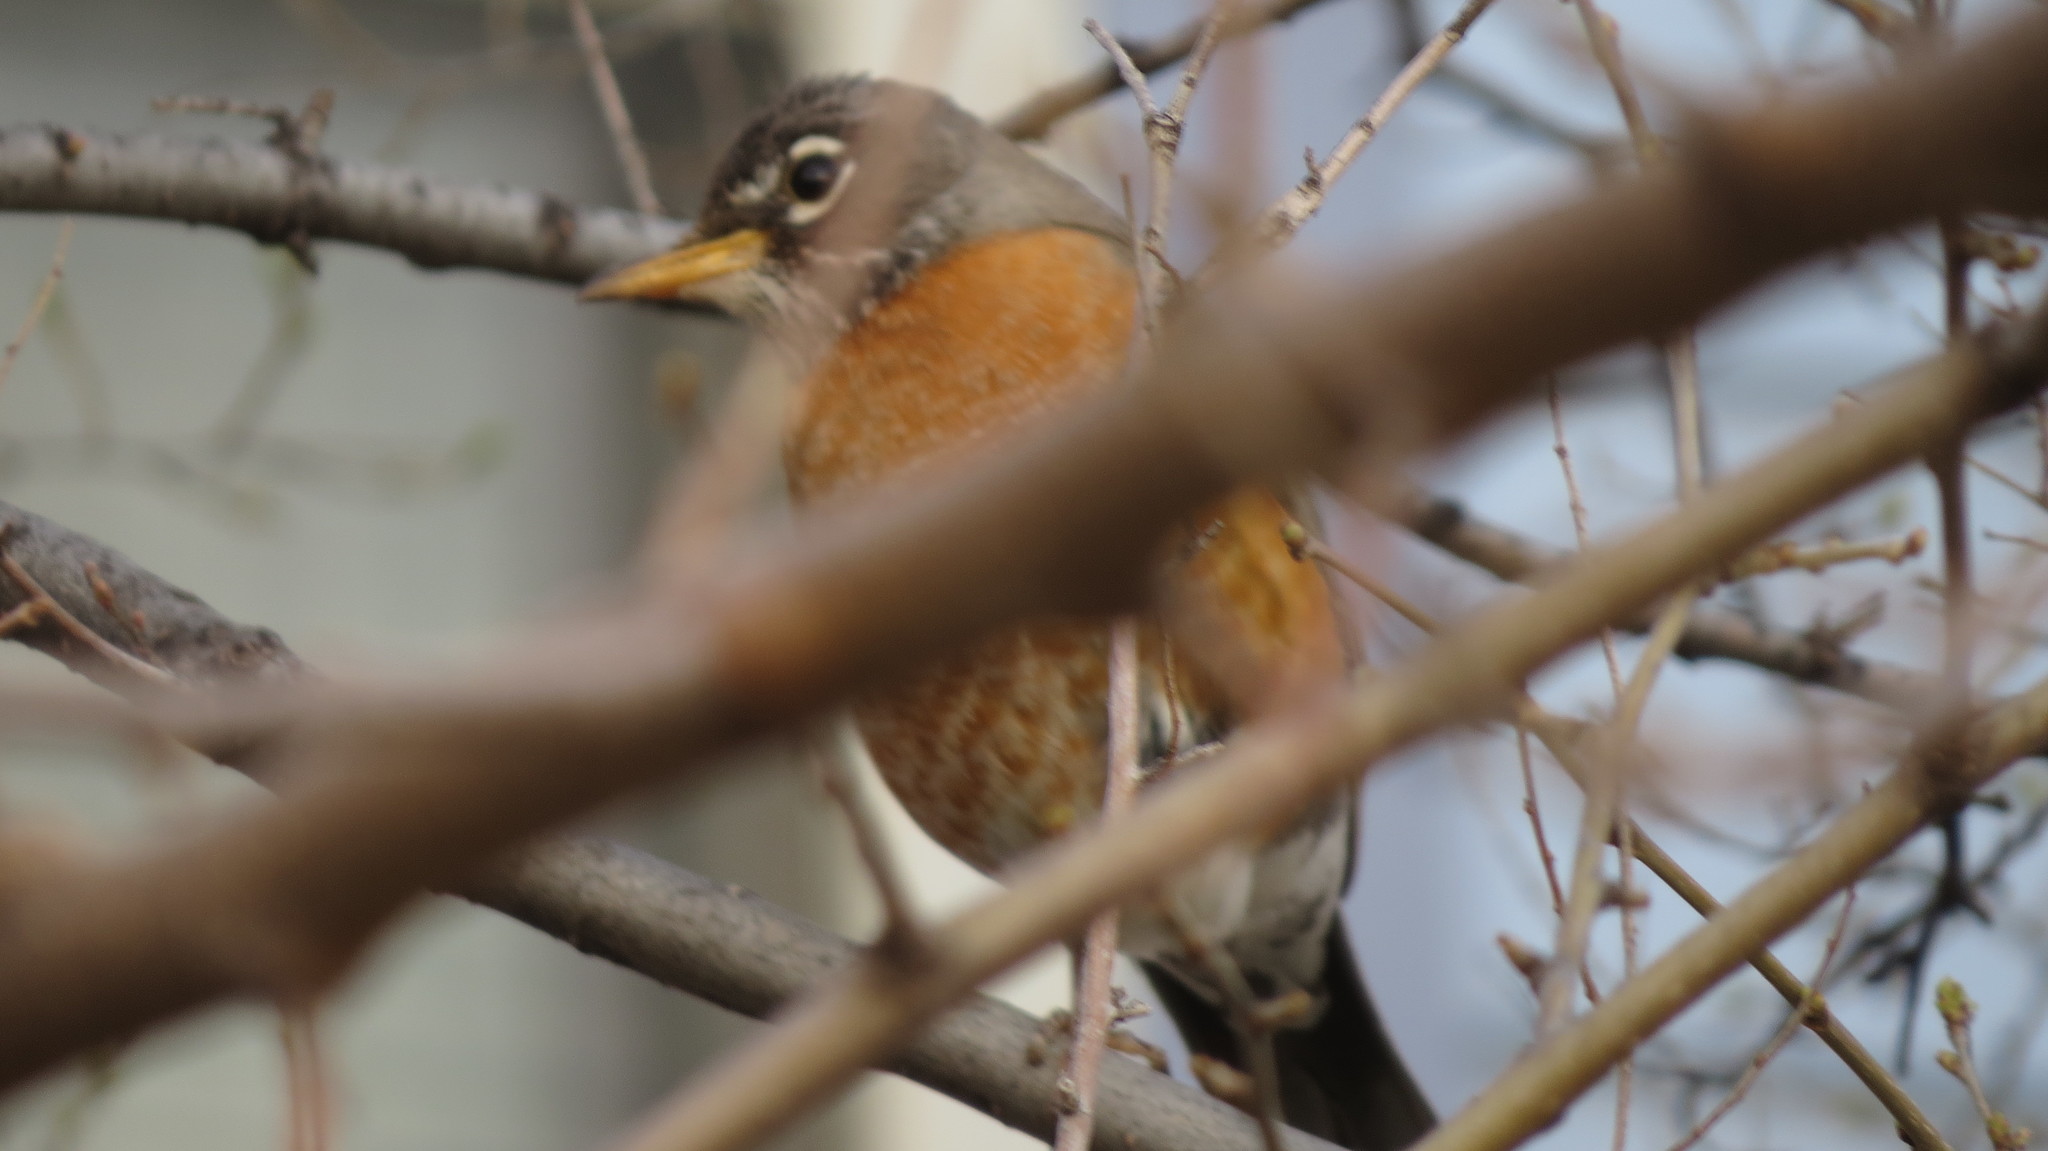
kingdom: Animalia
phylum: Chordata
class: Aves
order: Passeriformes
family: Turdidae
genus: Turdus
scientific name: Turdus migratorius
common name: American robin
